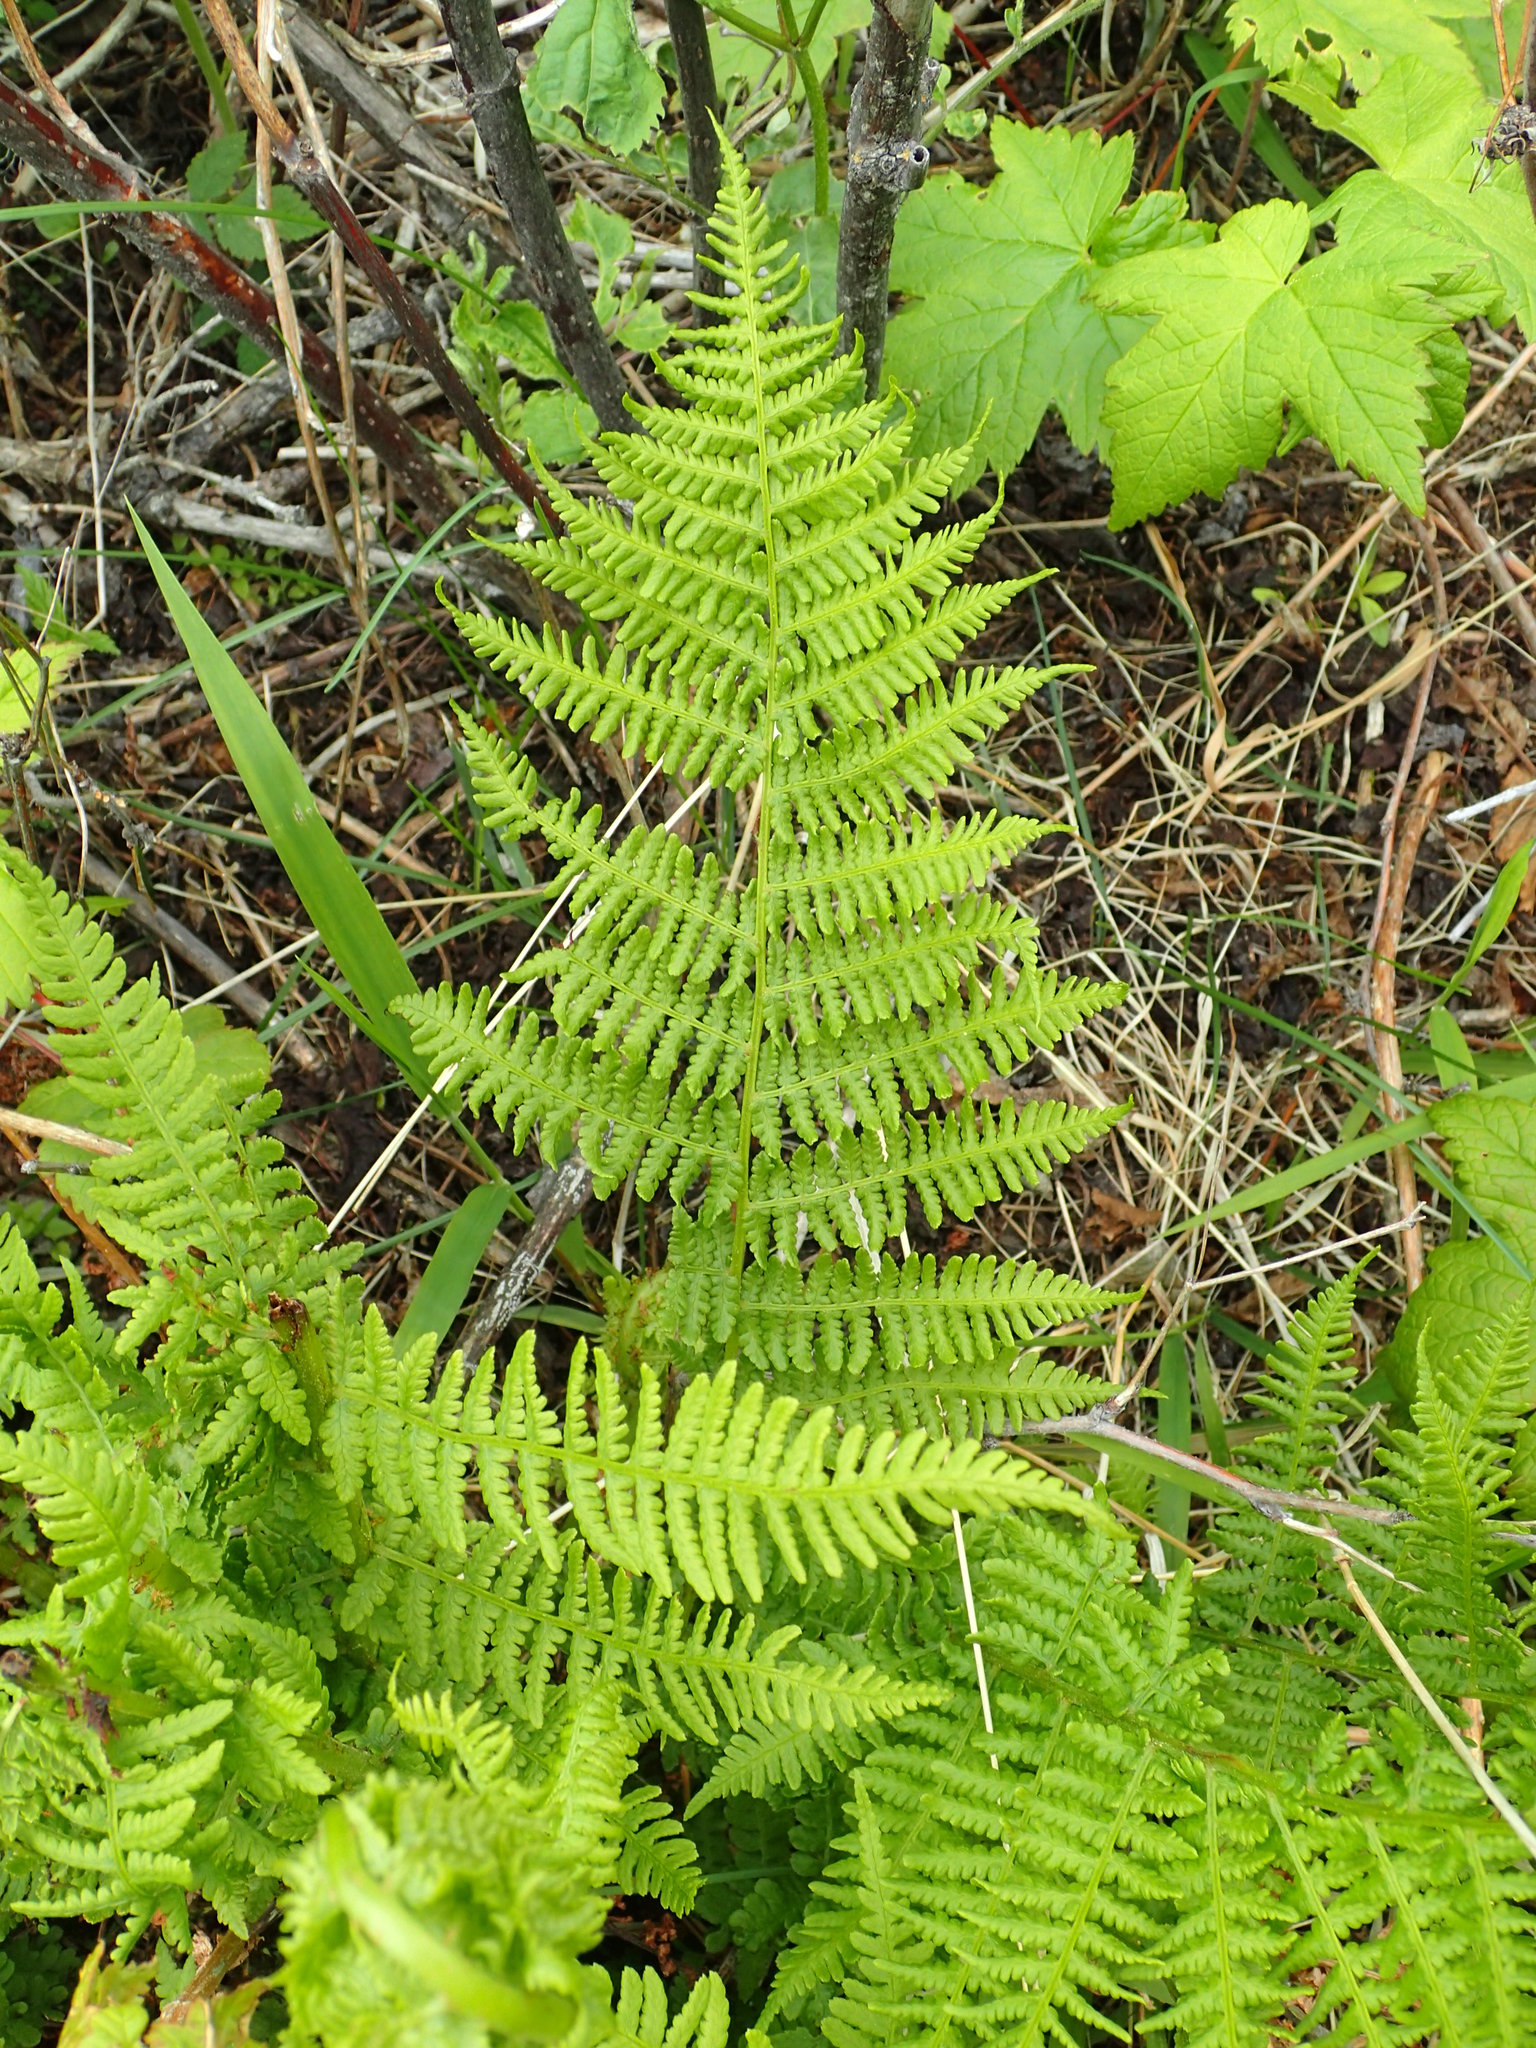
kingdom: Plantae
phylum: Tracheophyta
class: Polypodiopsida
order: Polypodiales
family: Athyriaceae
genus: Athyrium
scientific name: Athyrium filix-femina
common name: Lady fern
